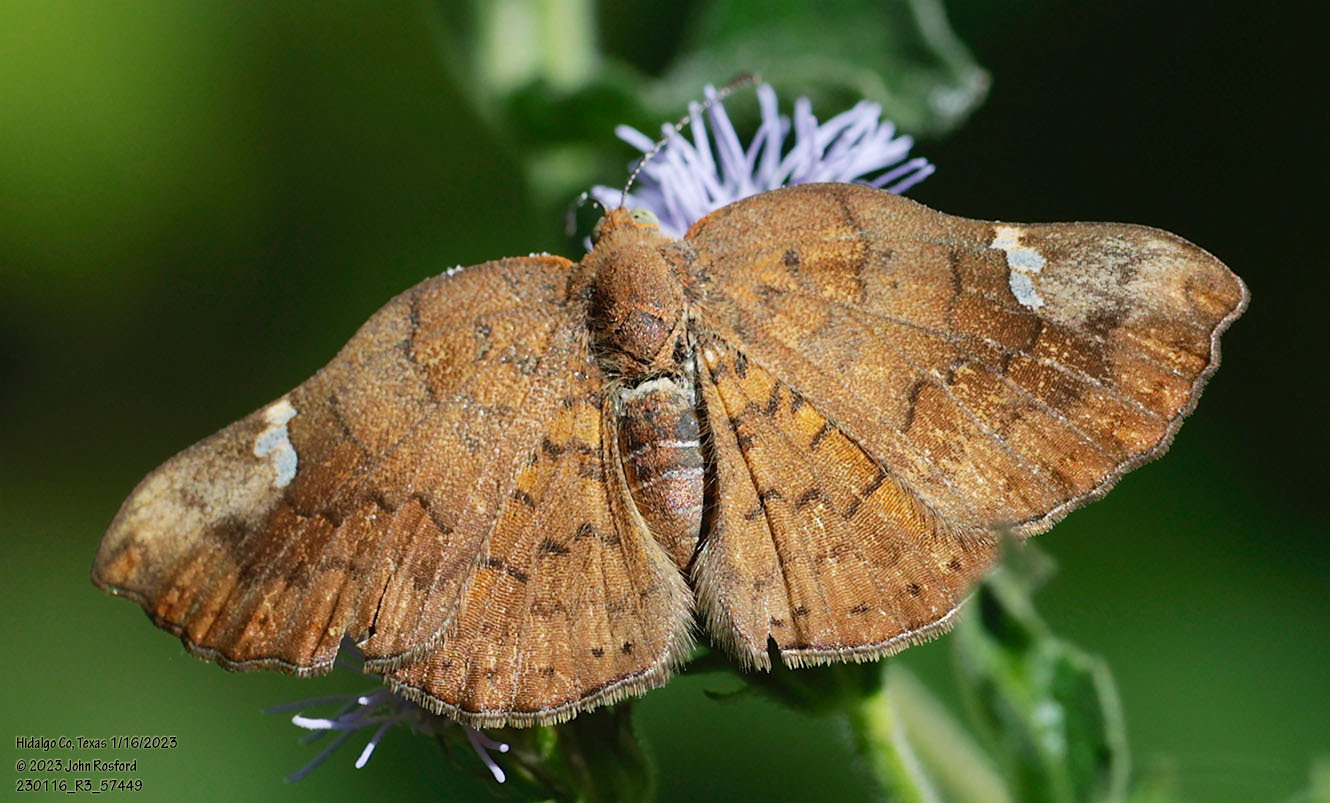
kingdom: Animalia
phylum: Arthropoda
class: Insecta
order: Lepidoptera
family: Riodinidae
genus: Curvie
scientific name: Curvie emesia
